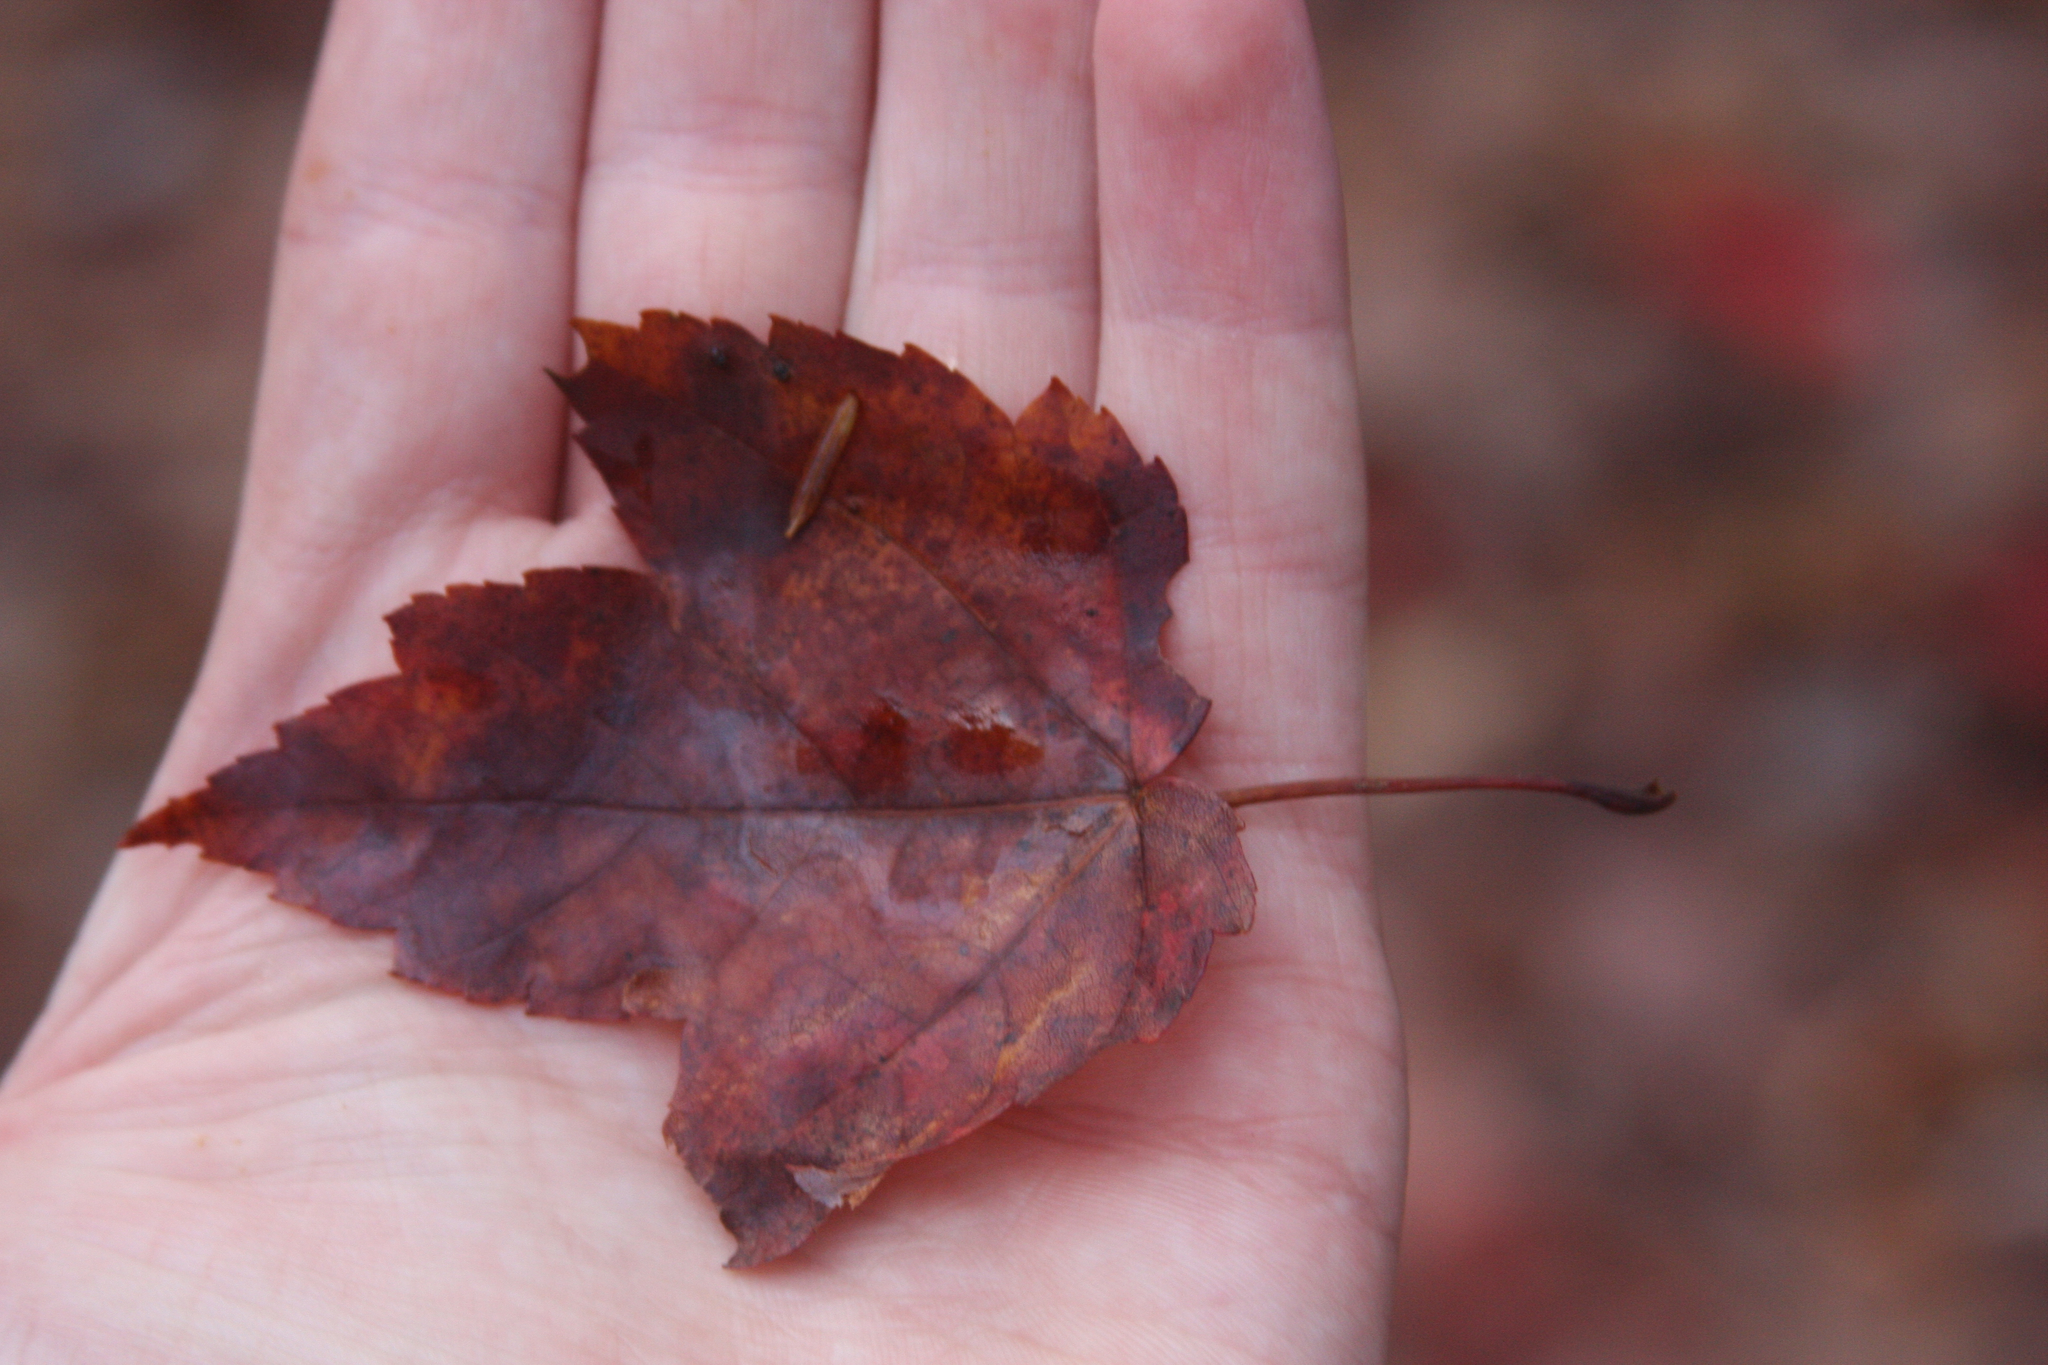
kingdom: Plantae
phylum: Tracheophyta
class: Magnoliopsida
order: Sapindales
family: Sapindaceae
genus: Acer
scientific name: Acer rubrum
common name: Red maple
